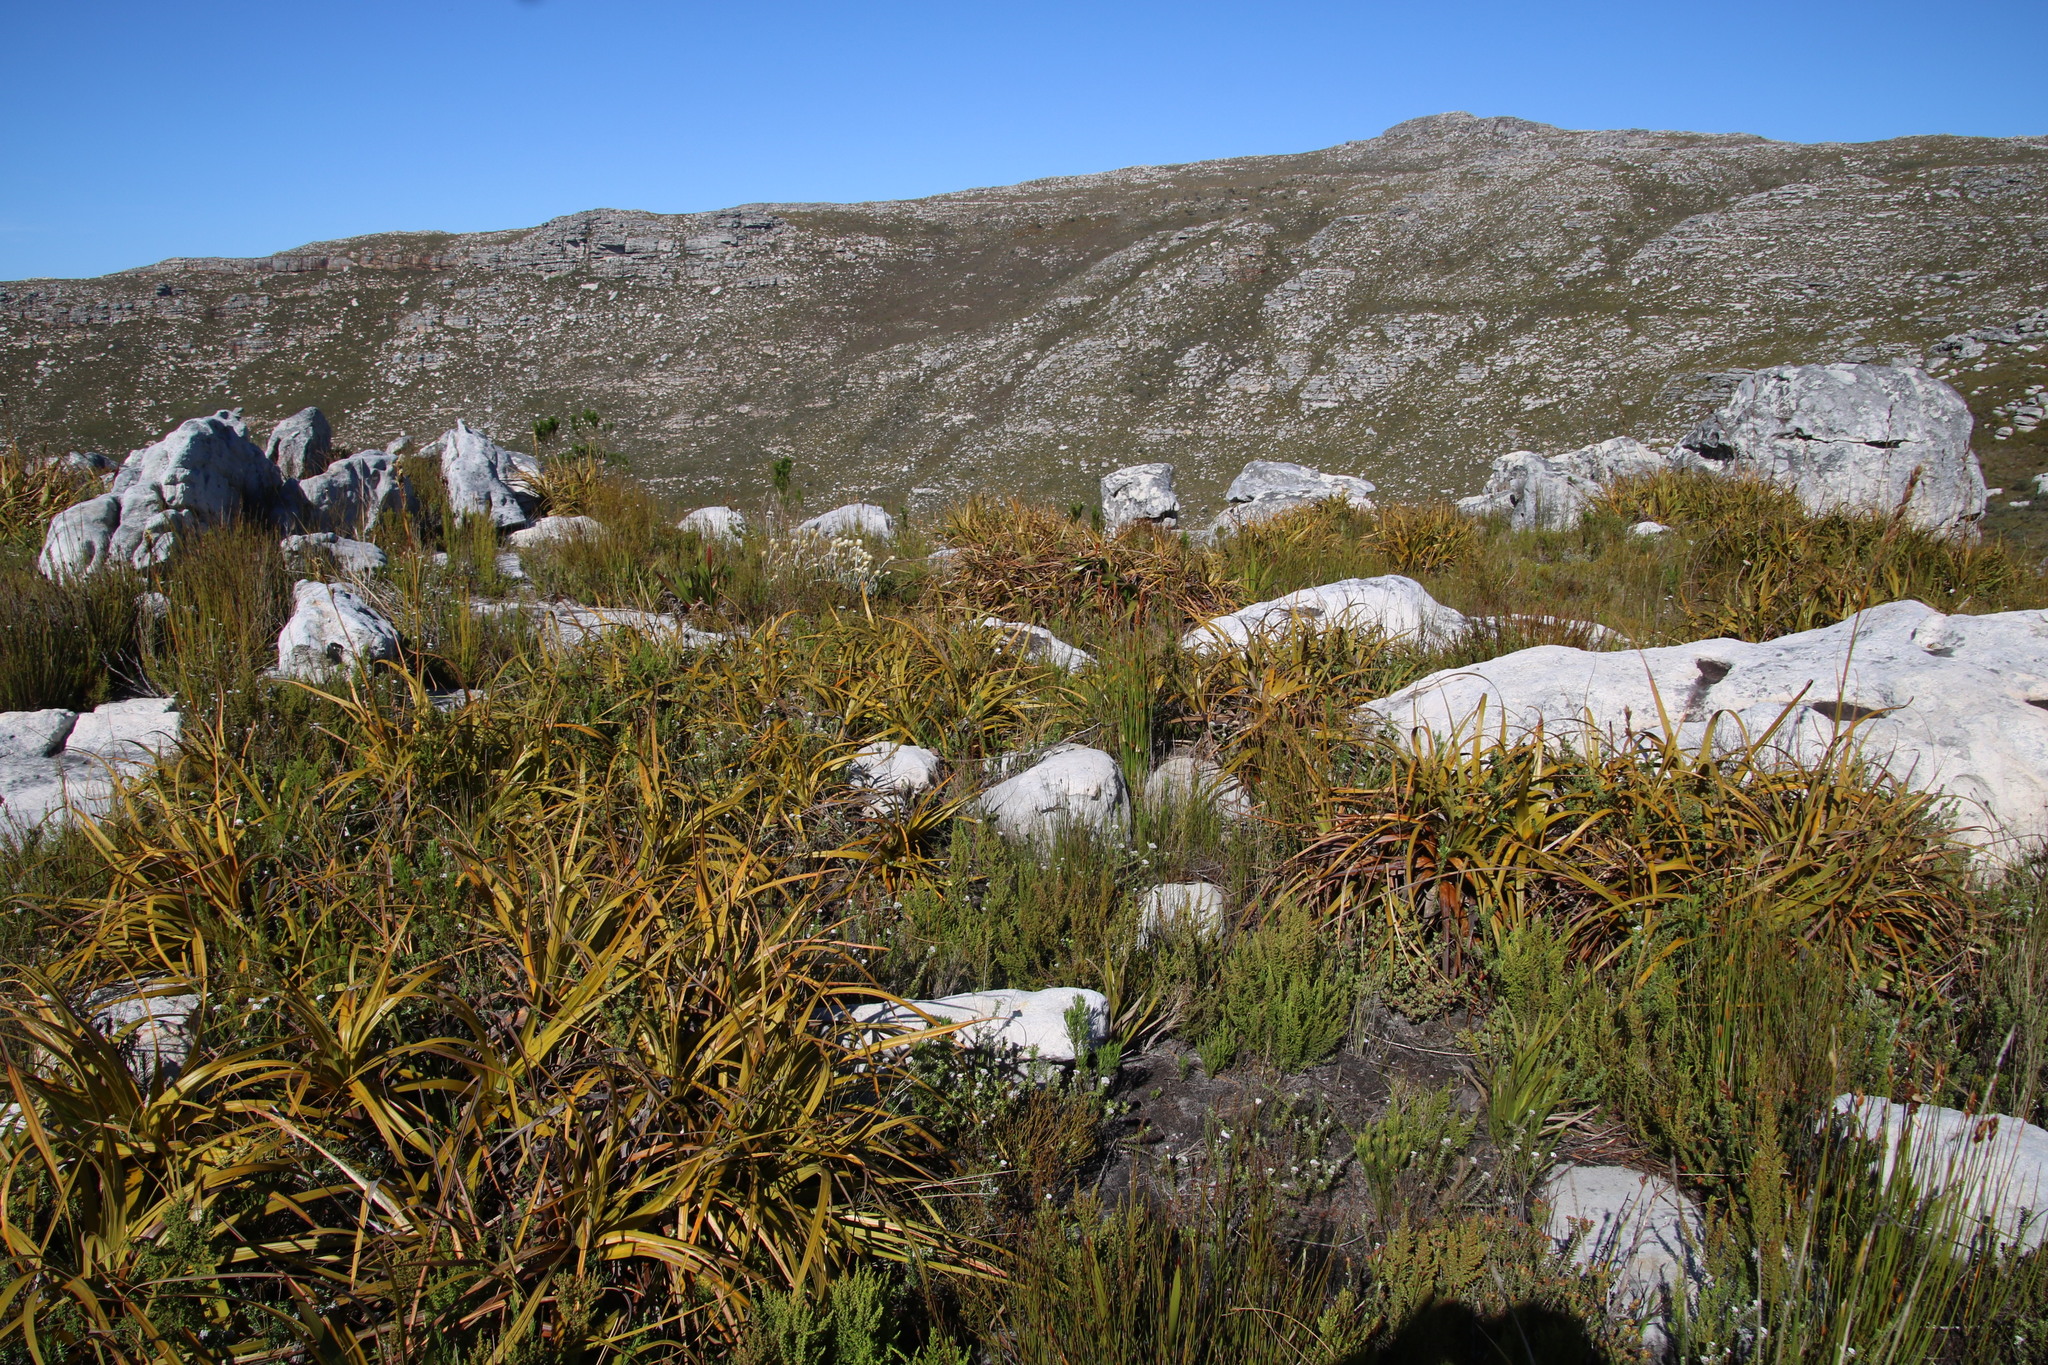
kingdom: Plantae
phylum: Tracheophyta
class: Liliopsida
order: Poales
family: Cyperaceae
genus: Tetraria
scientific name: Tetraria thermalis
